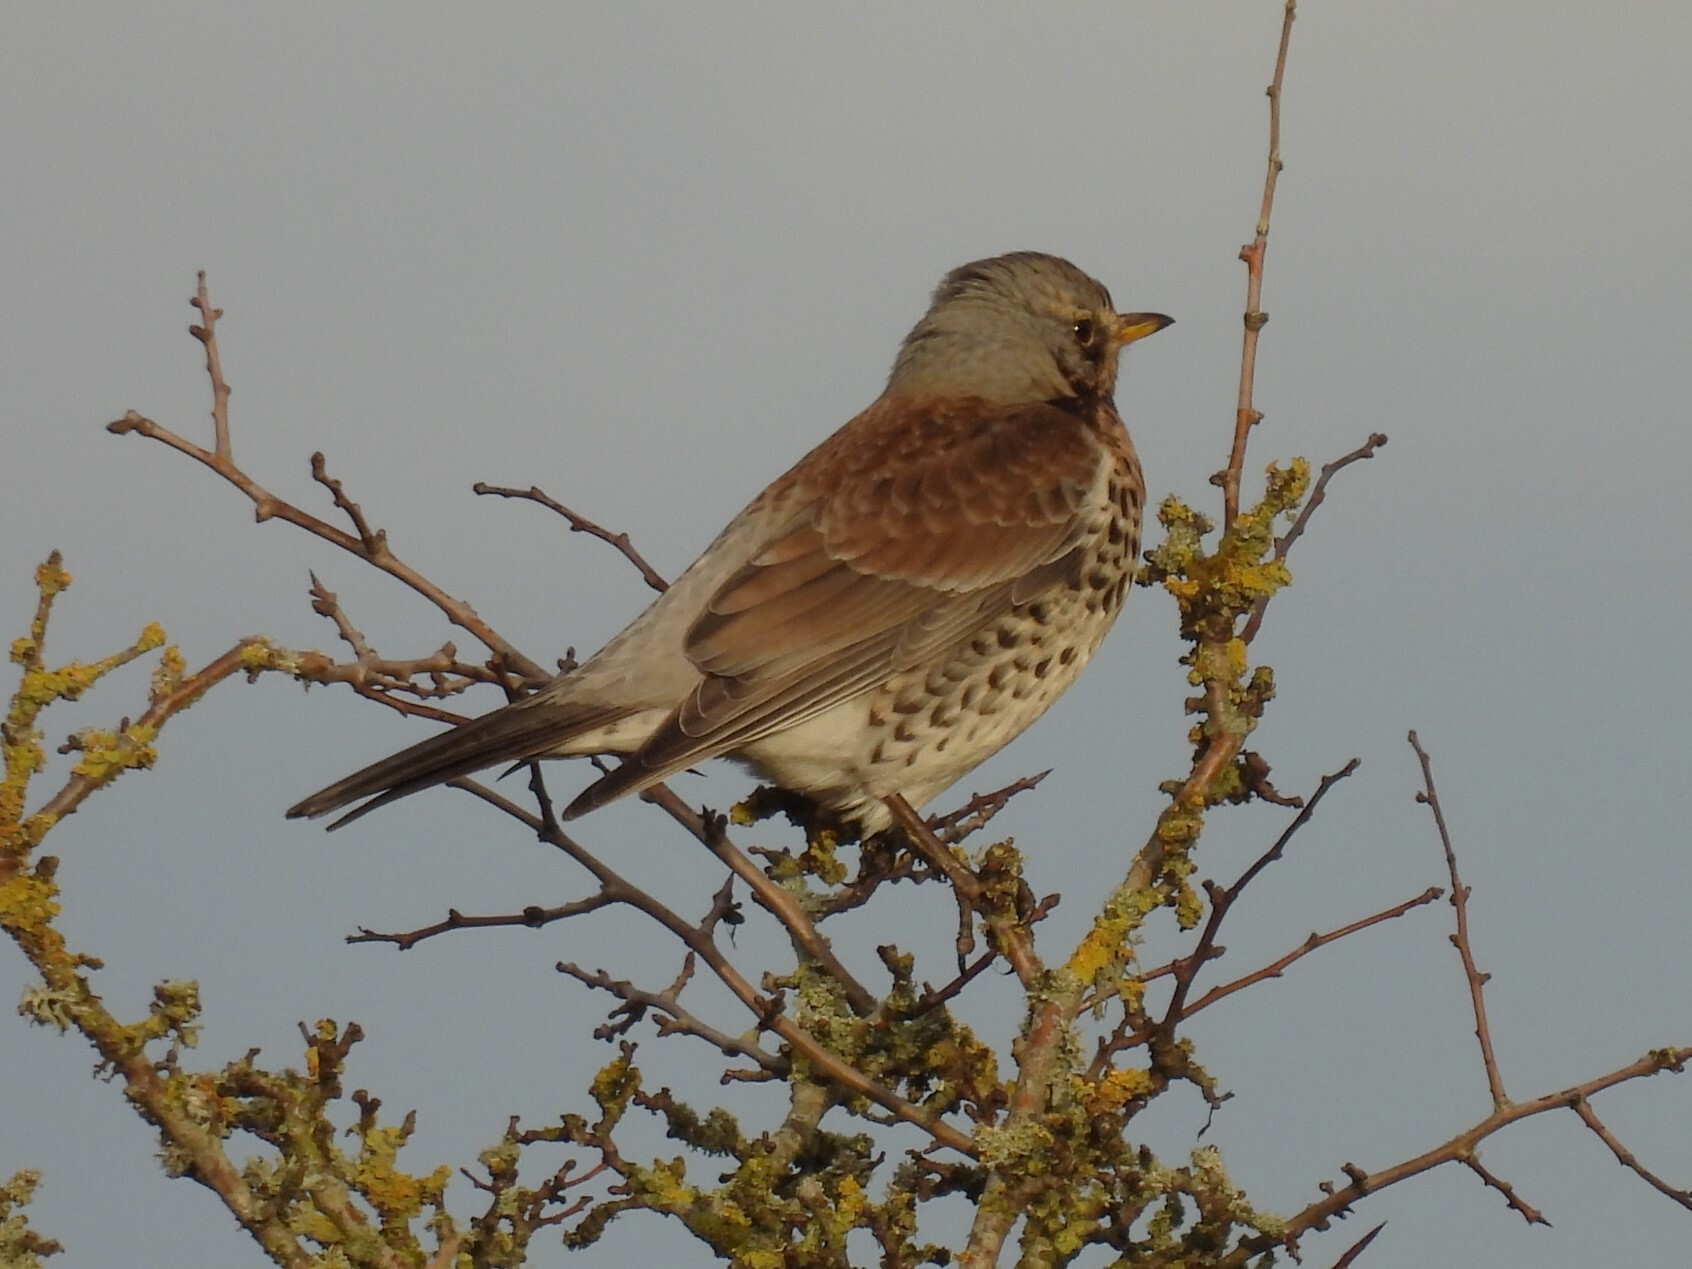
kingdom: Animalia
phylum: Chordata
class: Aves
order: Passeriformes
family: Turdidae
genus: Turdus
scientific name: Turdus pilaris
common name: Fieldfare
